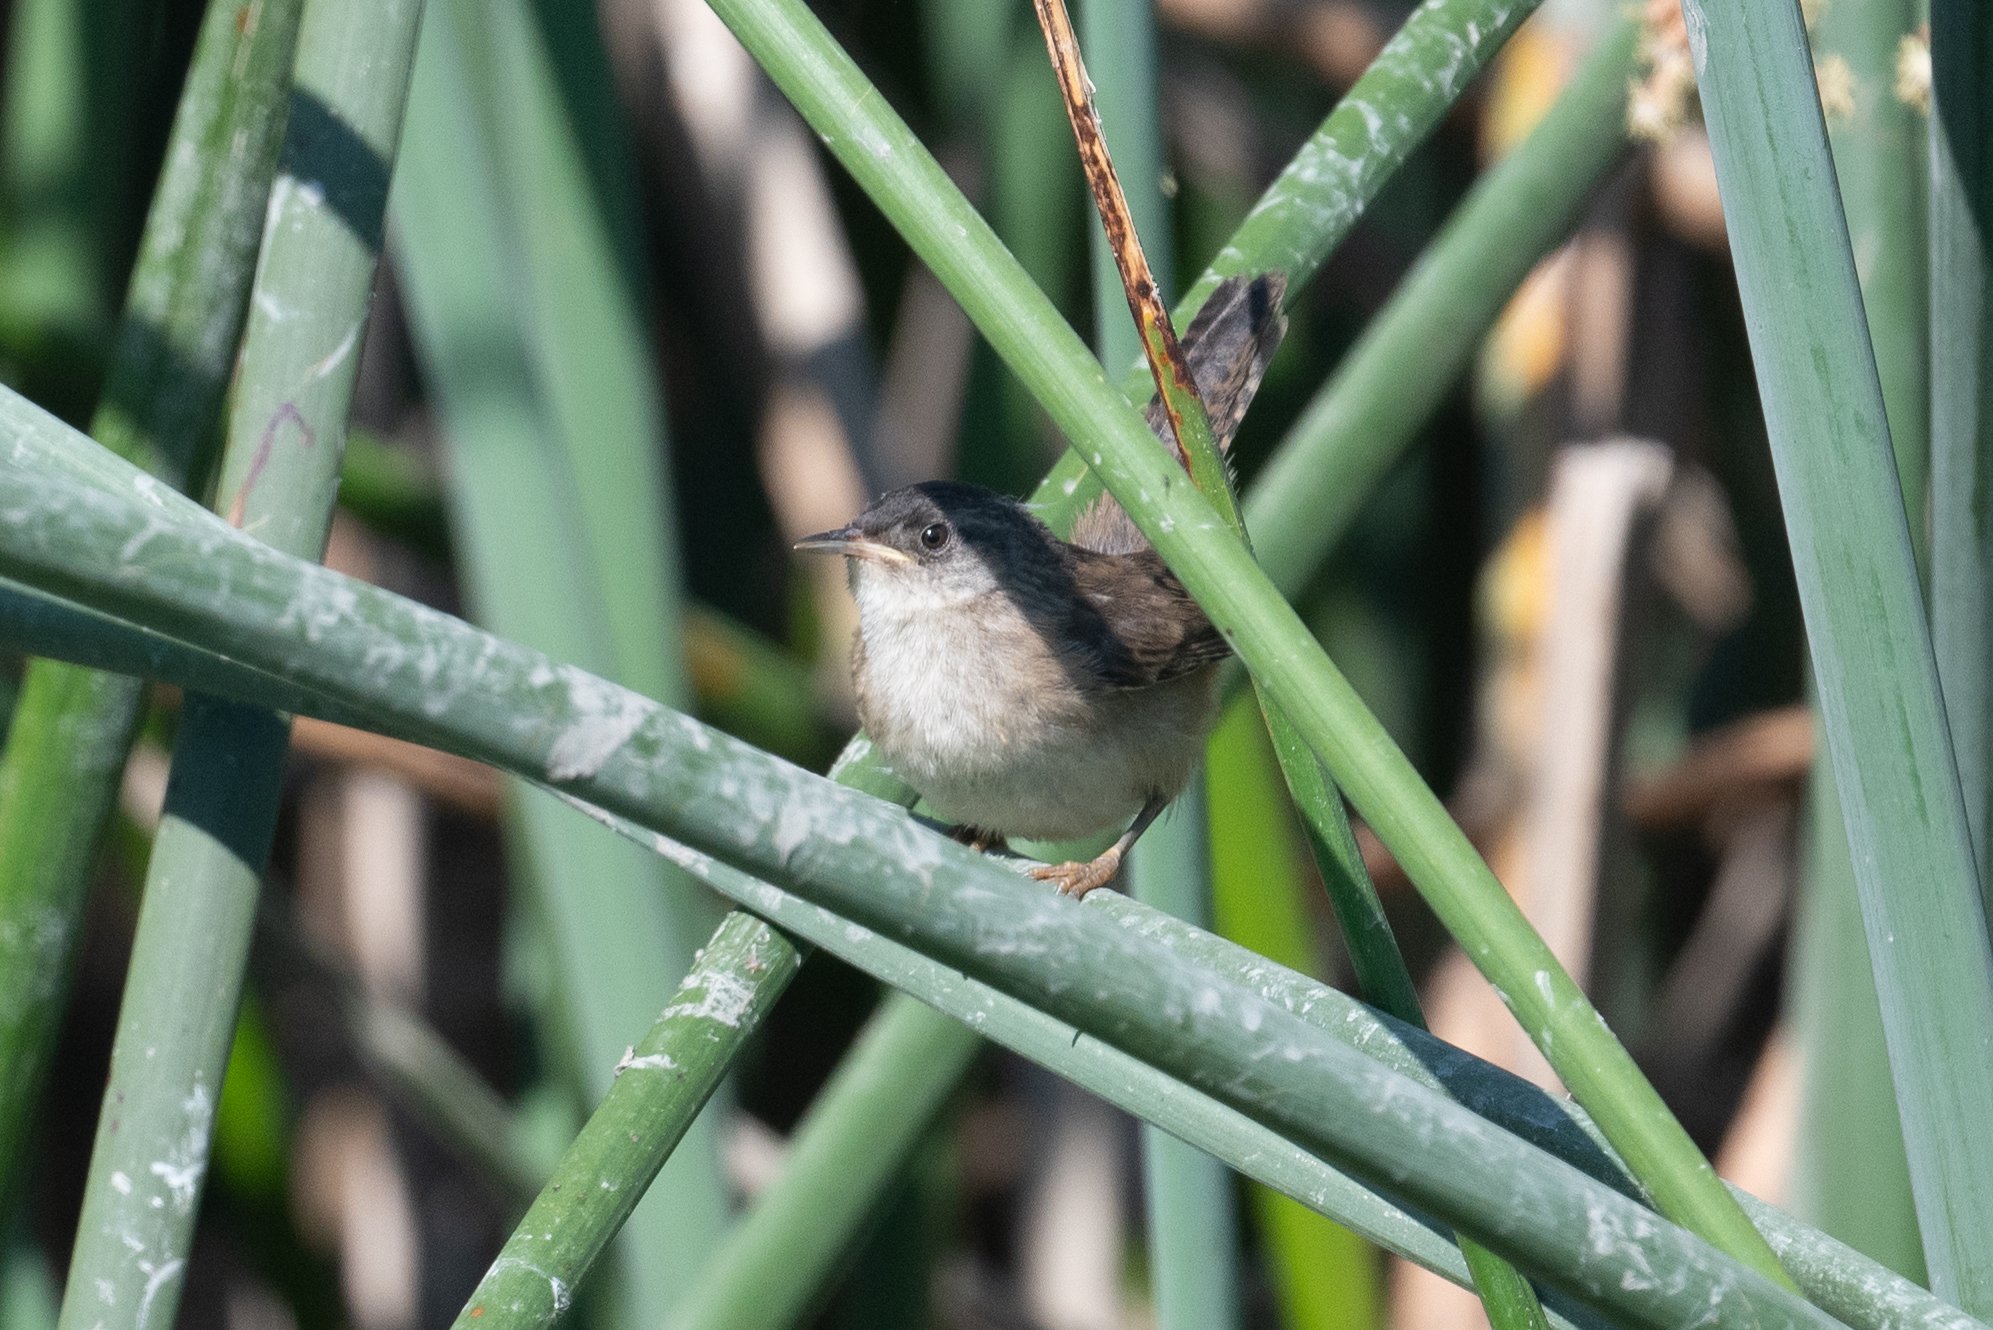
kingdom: Animalia
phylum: Chordata
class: Aves
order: Passeriformes
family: Troglodytidae
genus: Cistothorus
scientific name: Cistothorus palustris
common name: Marsh wren
